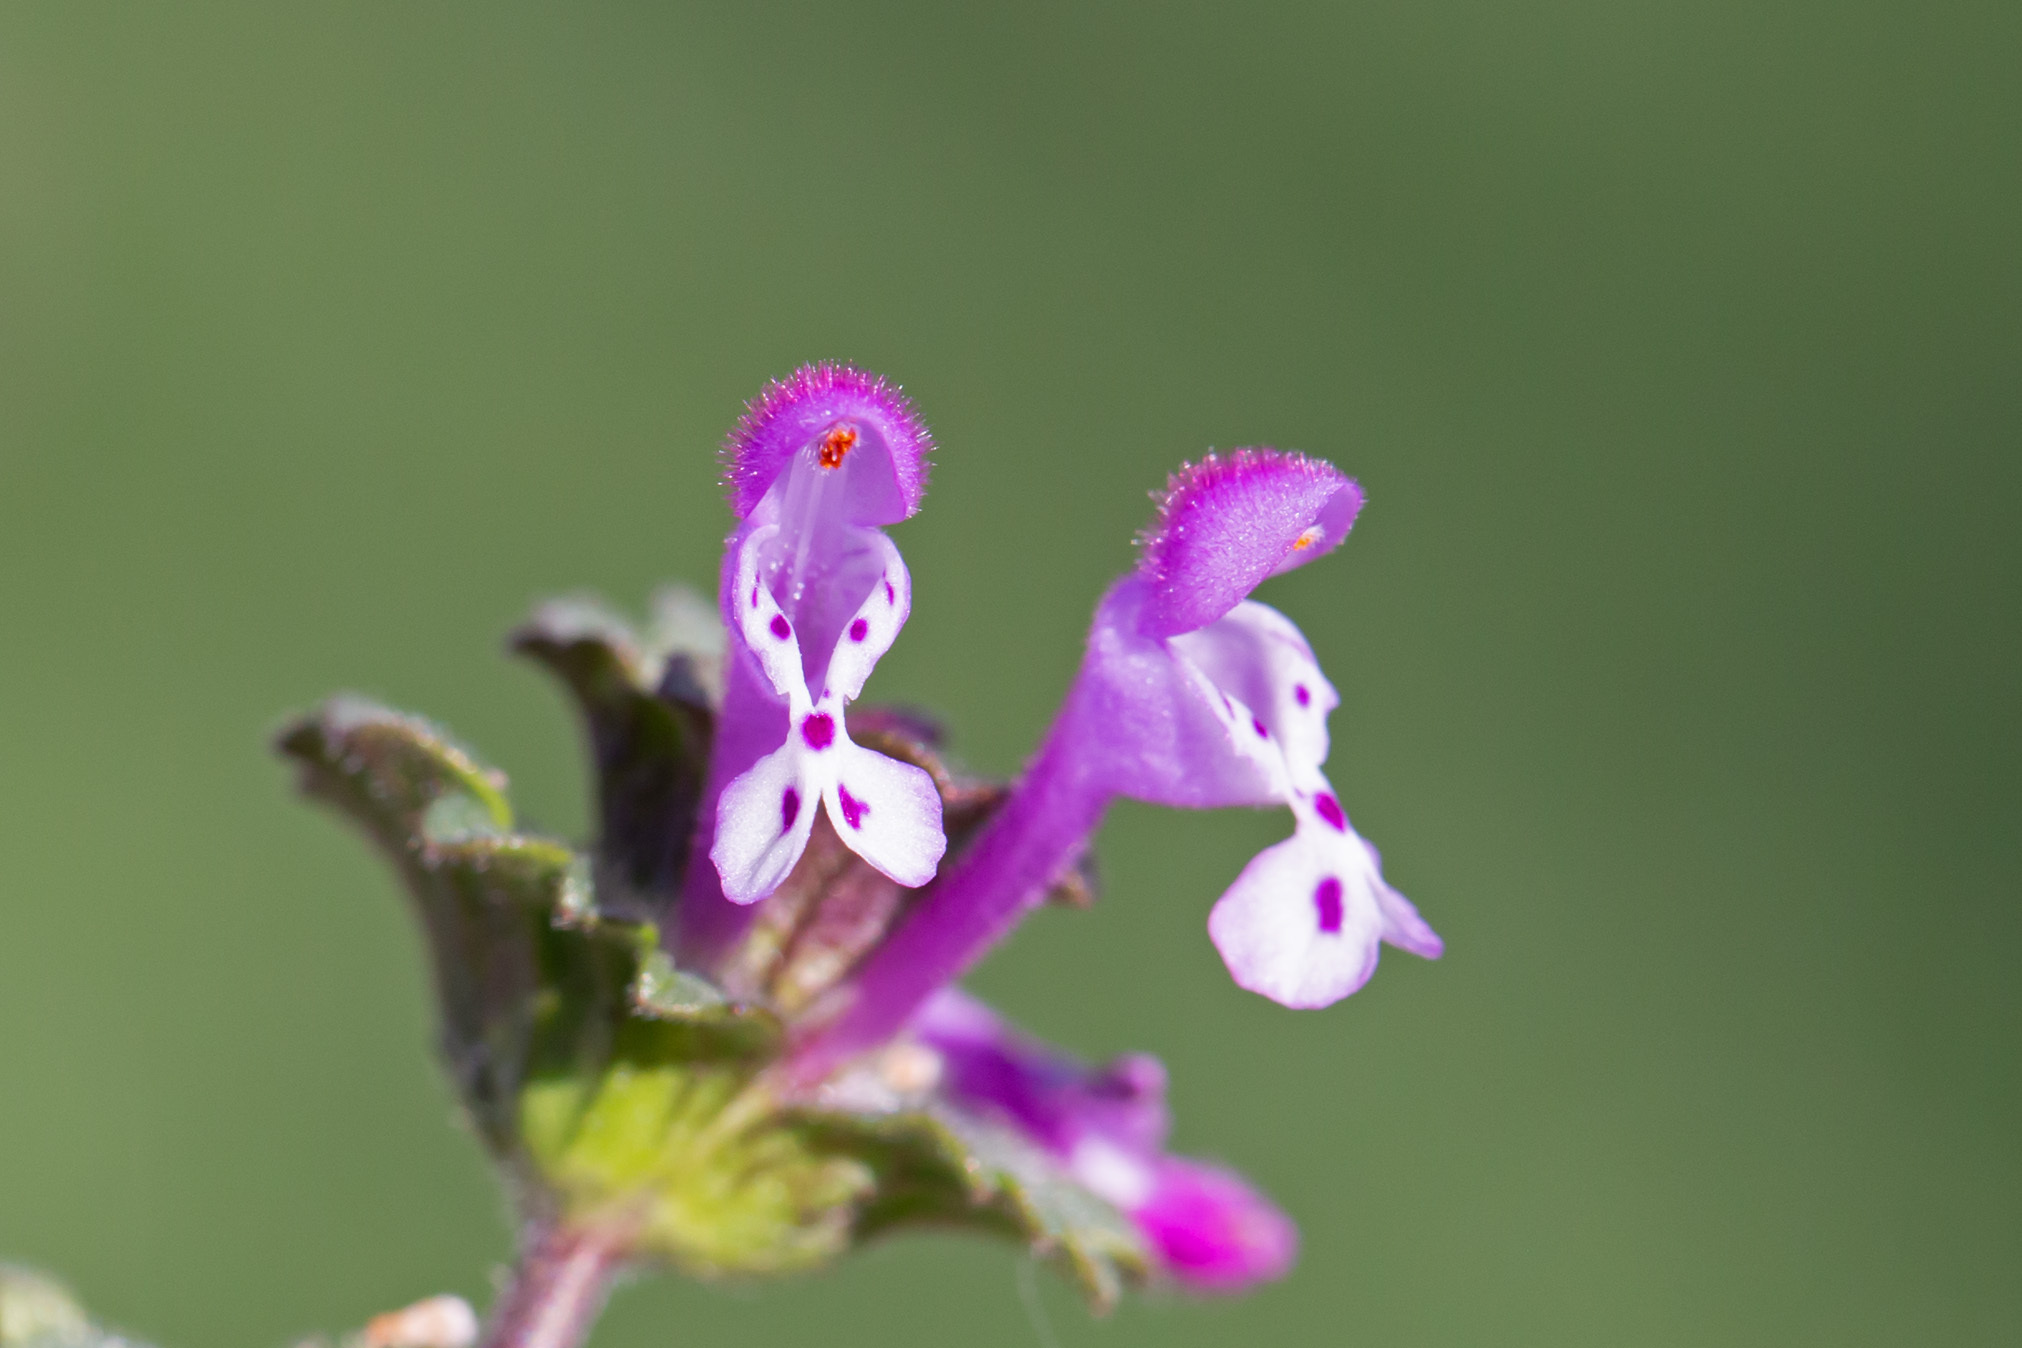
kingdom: Plantae
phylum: Tracheophyta
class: Magnoliopsida
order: Lamiales
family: Lamiaceae
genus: Lamium
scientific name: Lamium amplexicaule
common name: Henbit dead-nettle
